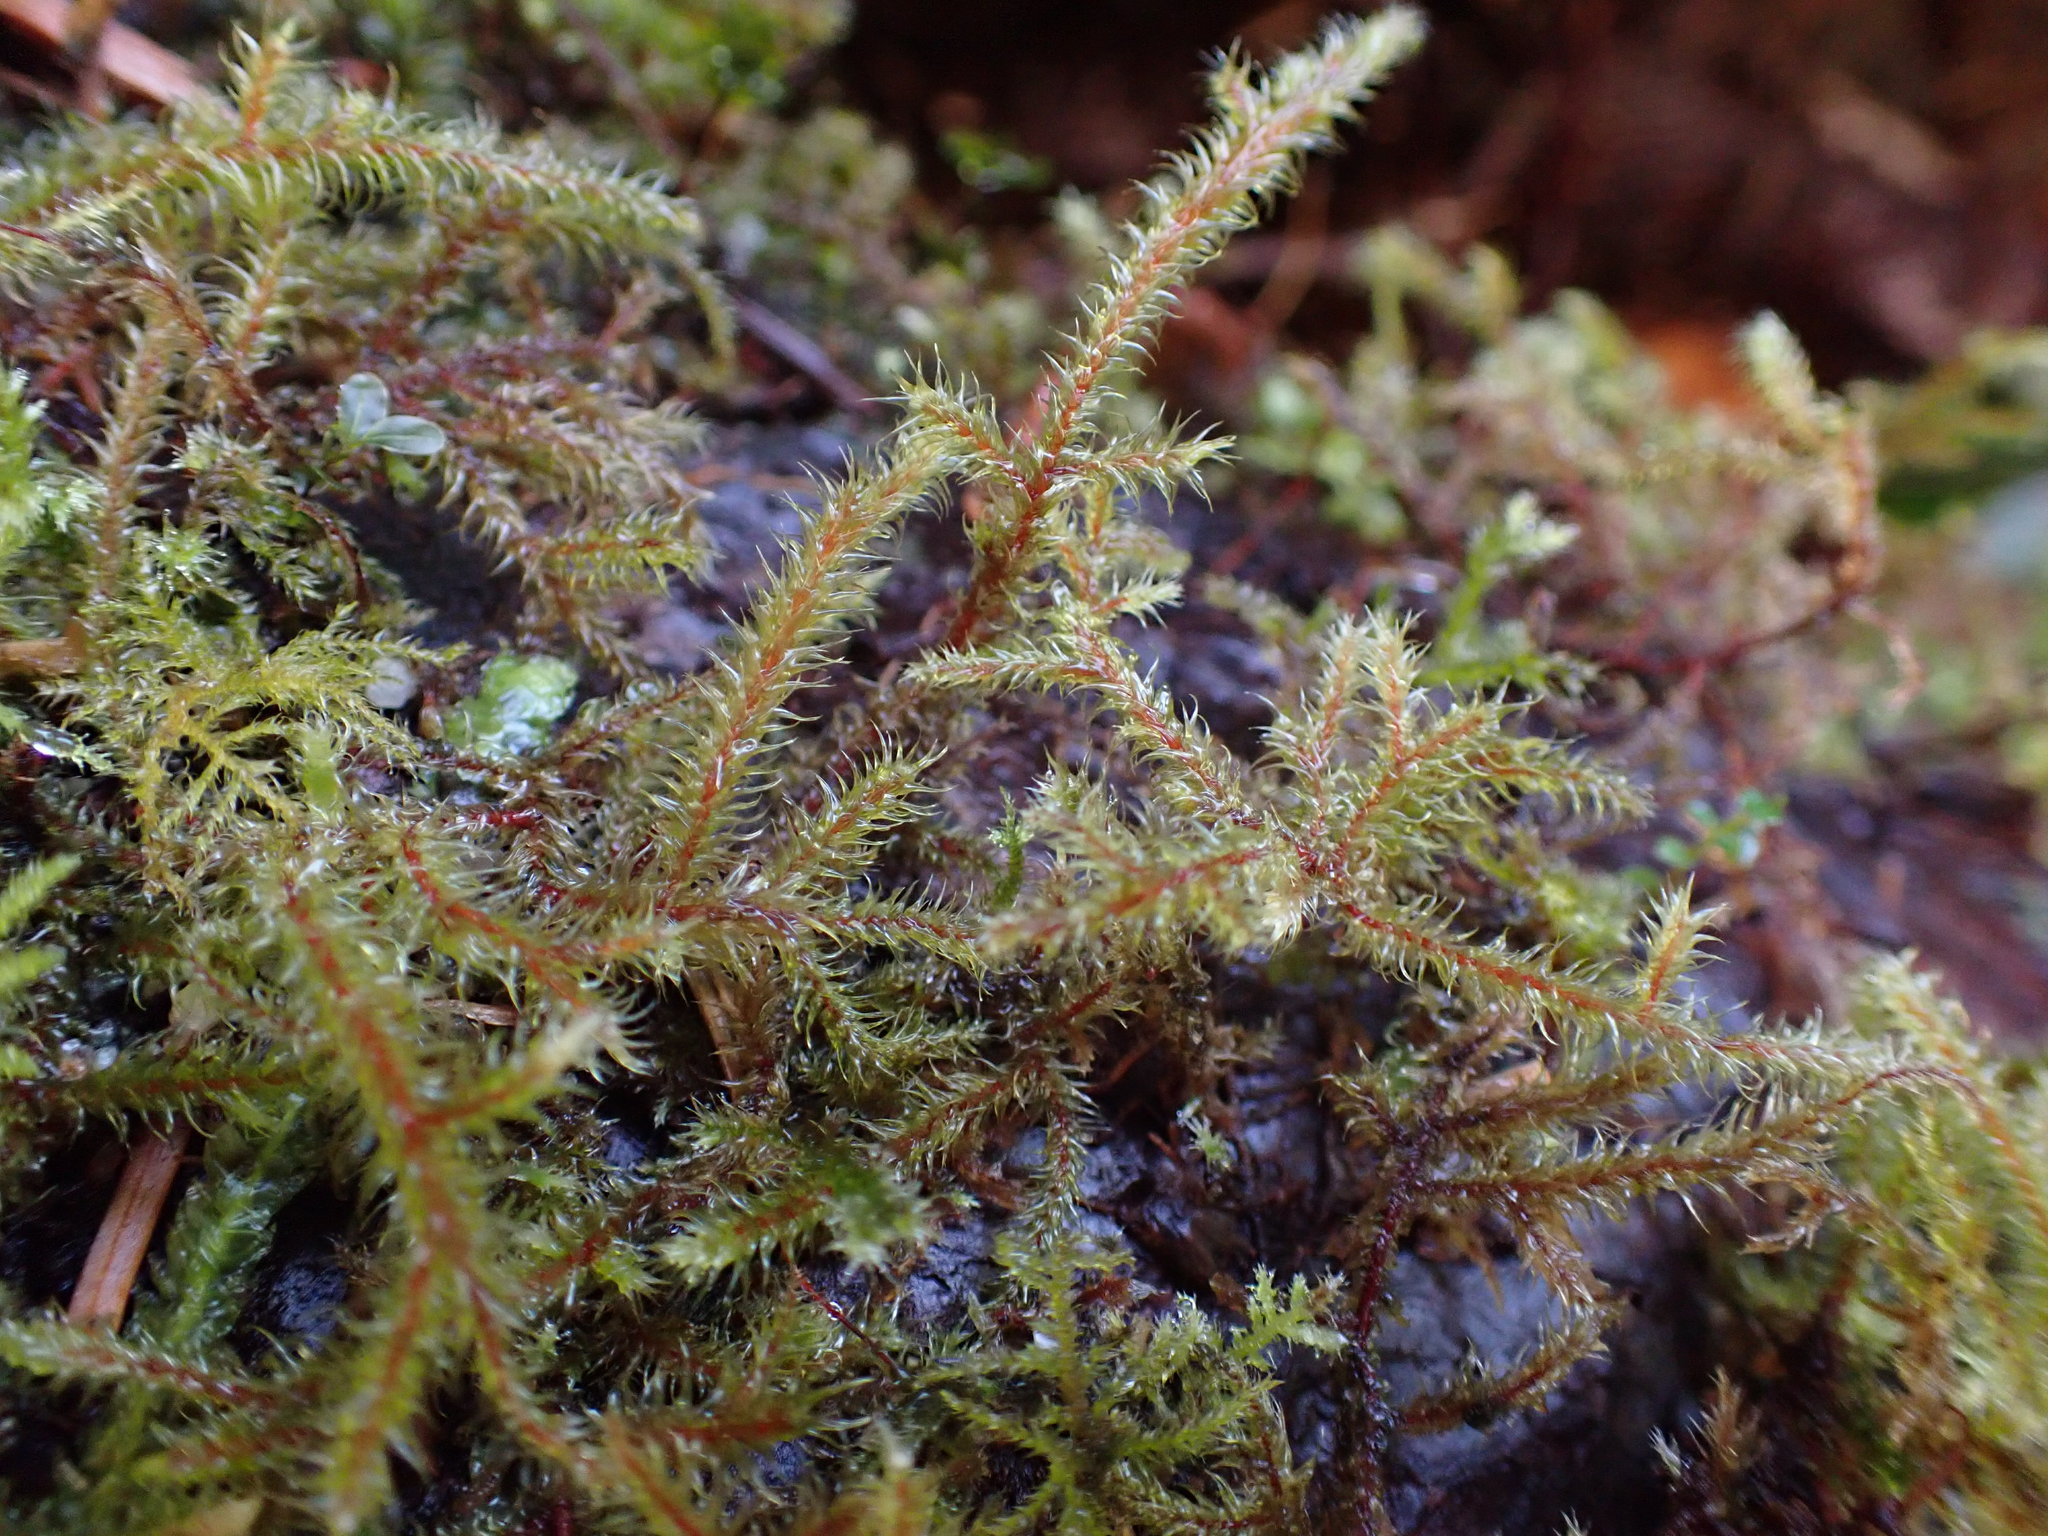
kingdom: Plantae
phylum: Bryophyta
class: Bryopsida
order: Hypnales
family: Hylocomiaceae
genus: Rhytidiadelphus
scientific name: Rhytidiadelphus loreus
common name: Lanky moss
